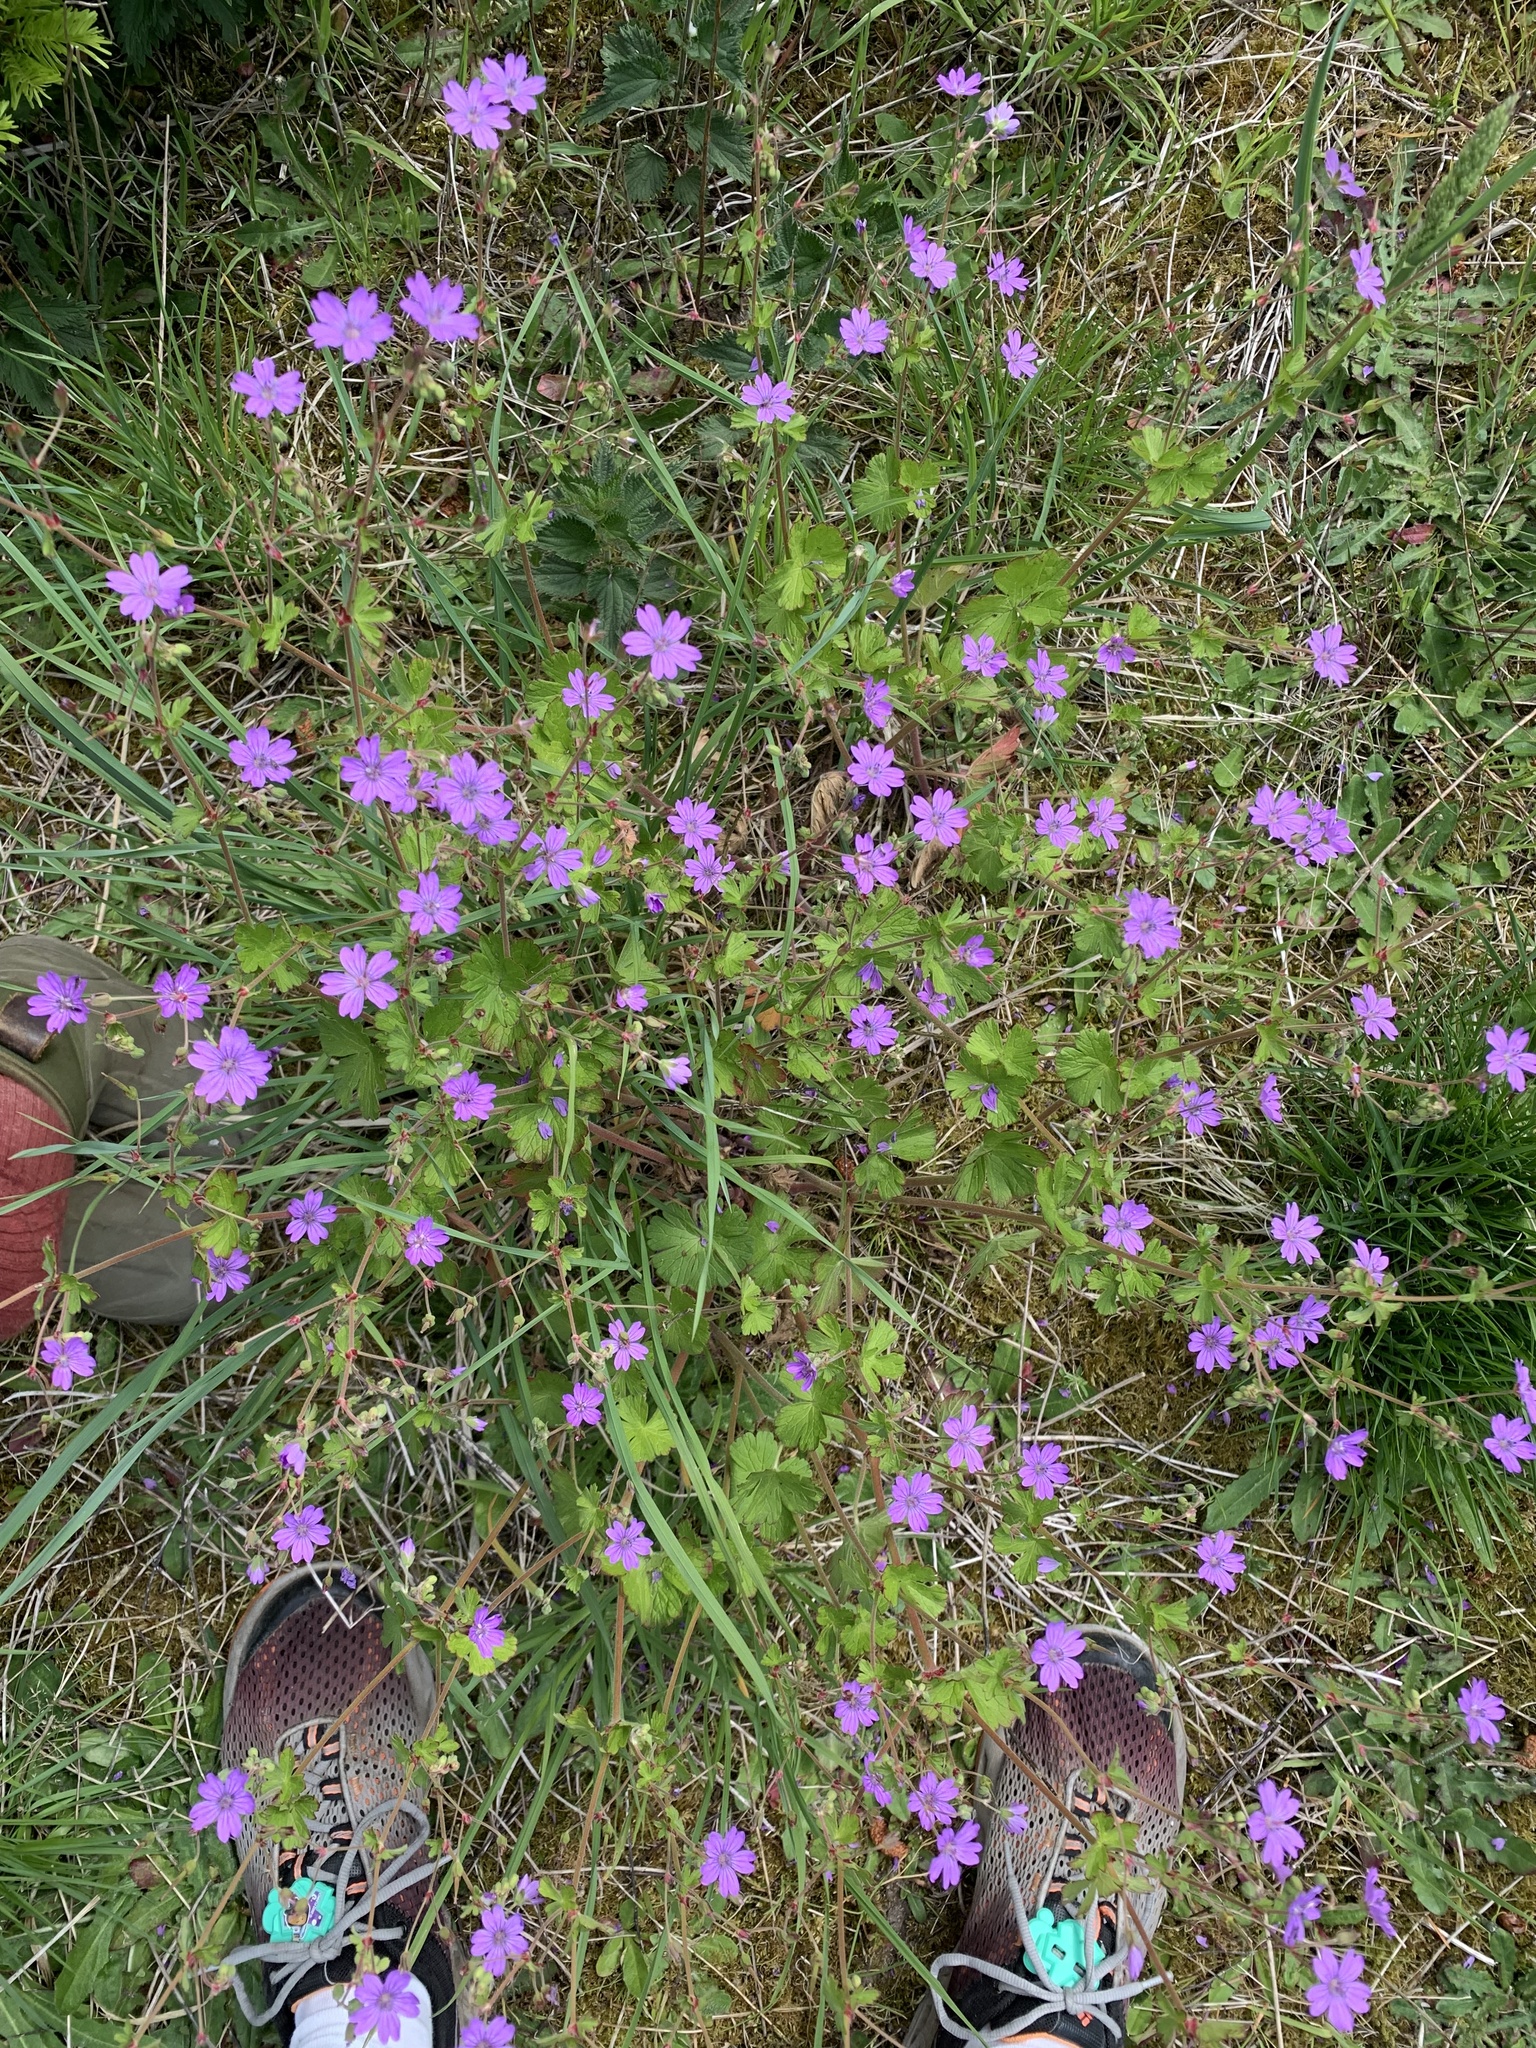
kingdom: Plantae
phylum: Tracheophyta
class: Magnoliopsida
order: Geraniales
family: Geraniaceae
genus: Geranium
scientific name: Geranium pyrenaicum
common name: Hedgerow crane's-bill
